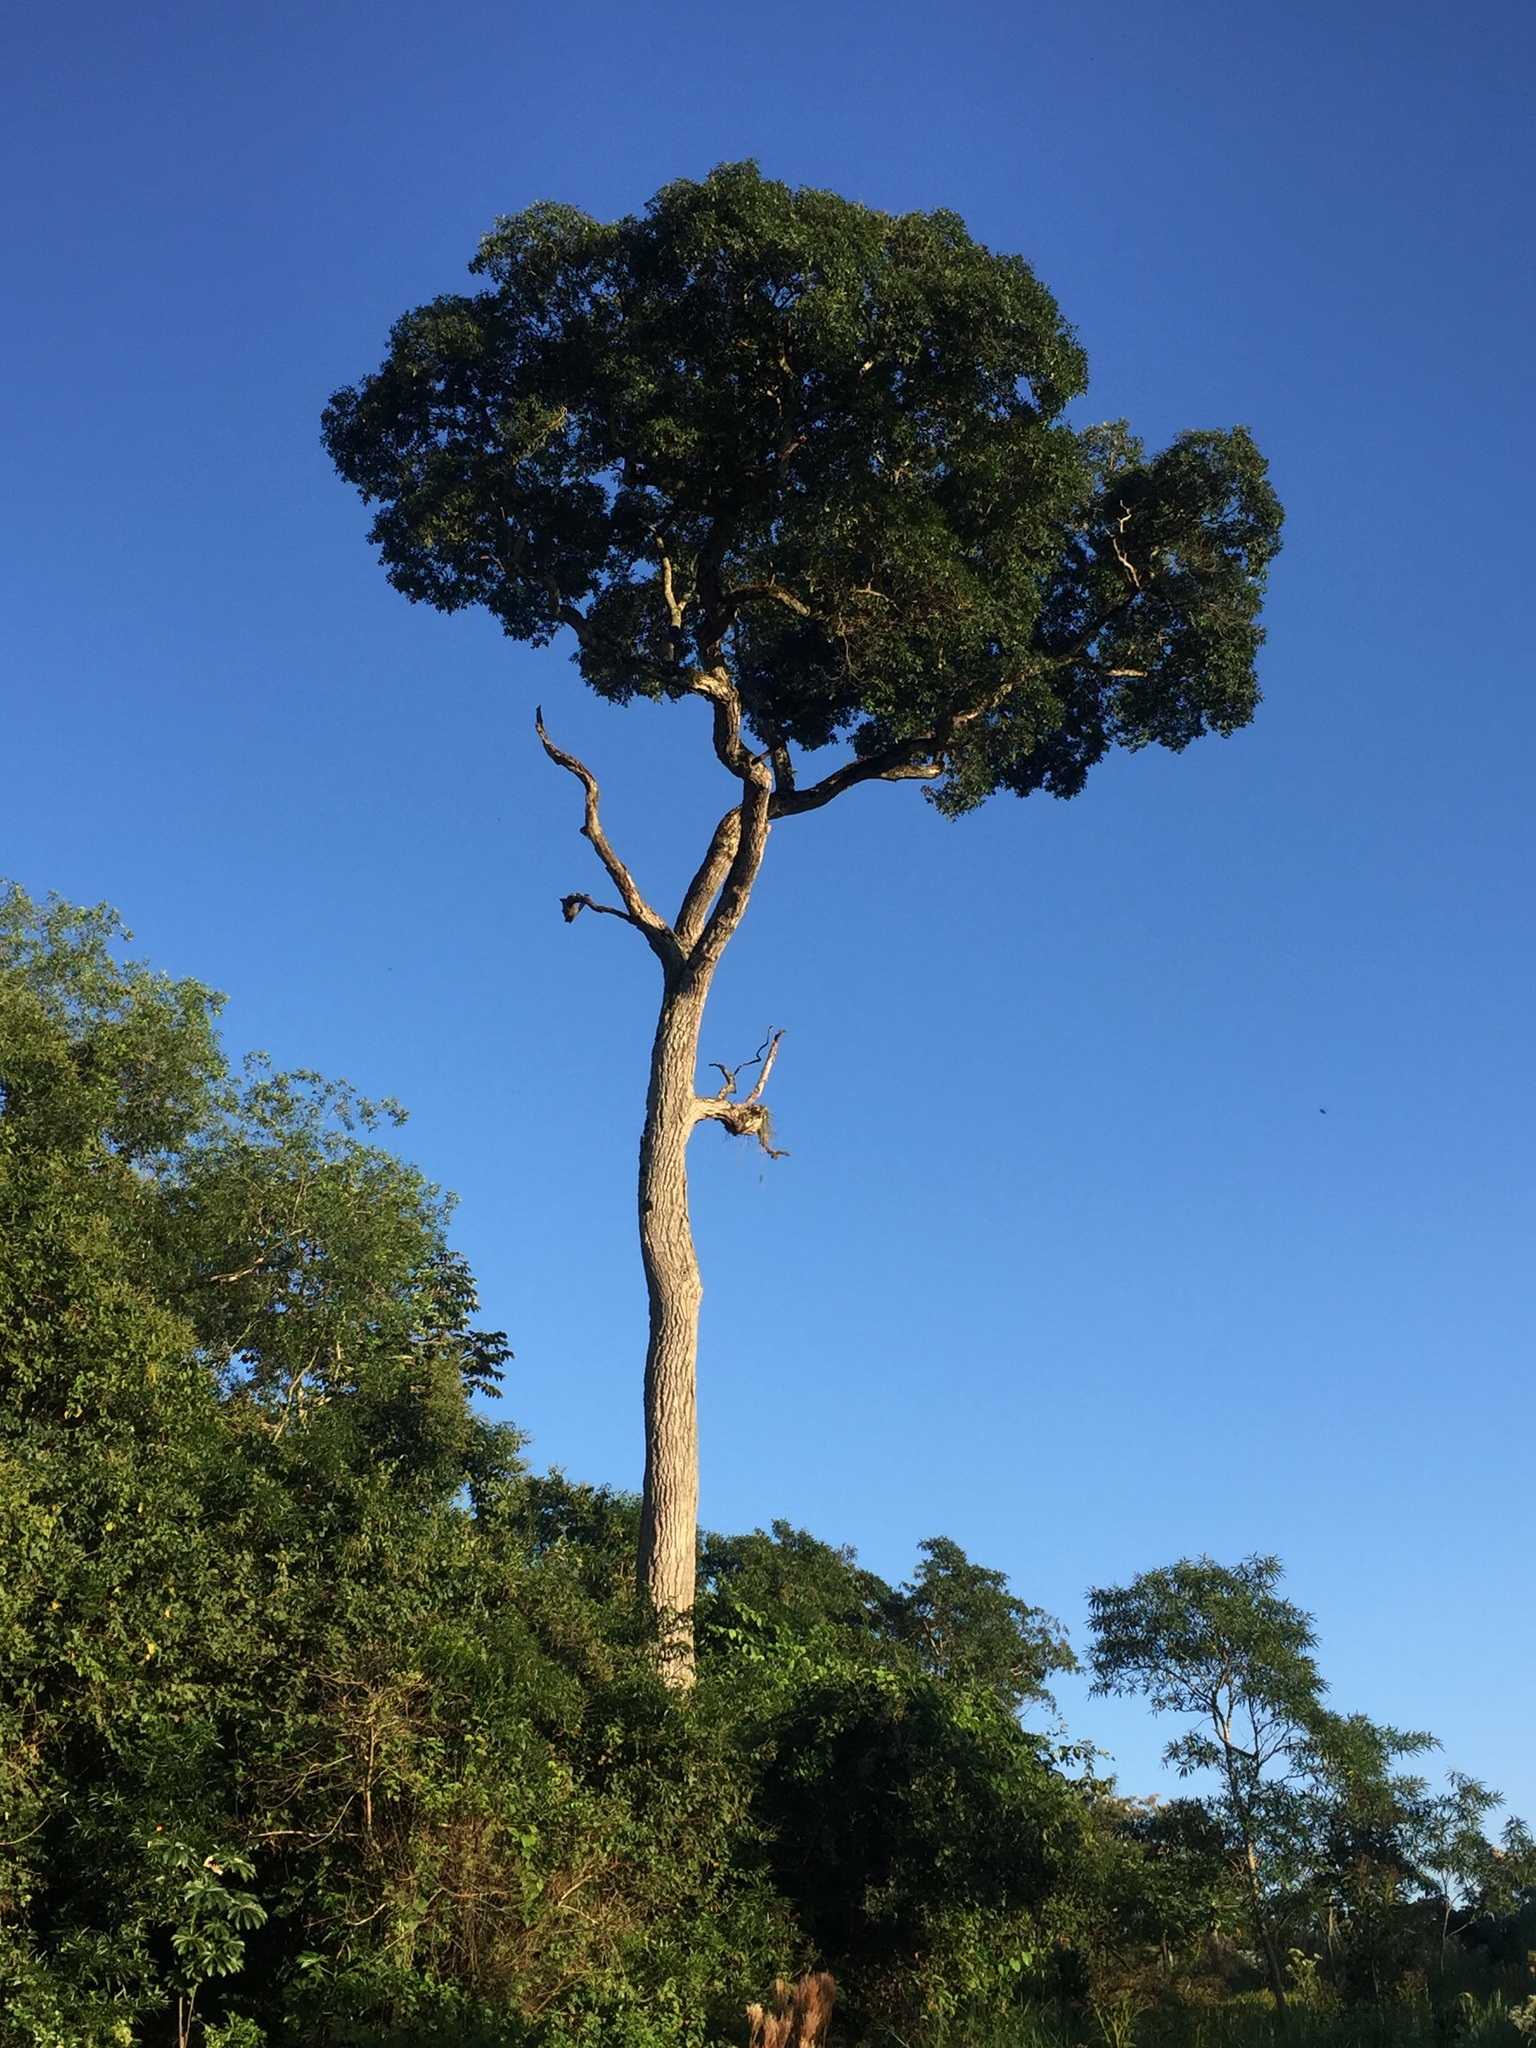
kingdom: Plantae
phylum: Tracheophyta
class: Magnoliopsida
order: Gentianales
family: Apocynaceae
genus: Aspidosperma
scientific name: Aspidosperma polyneuron
